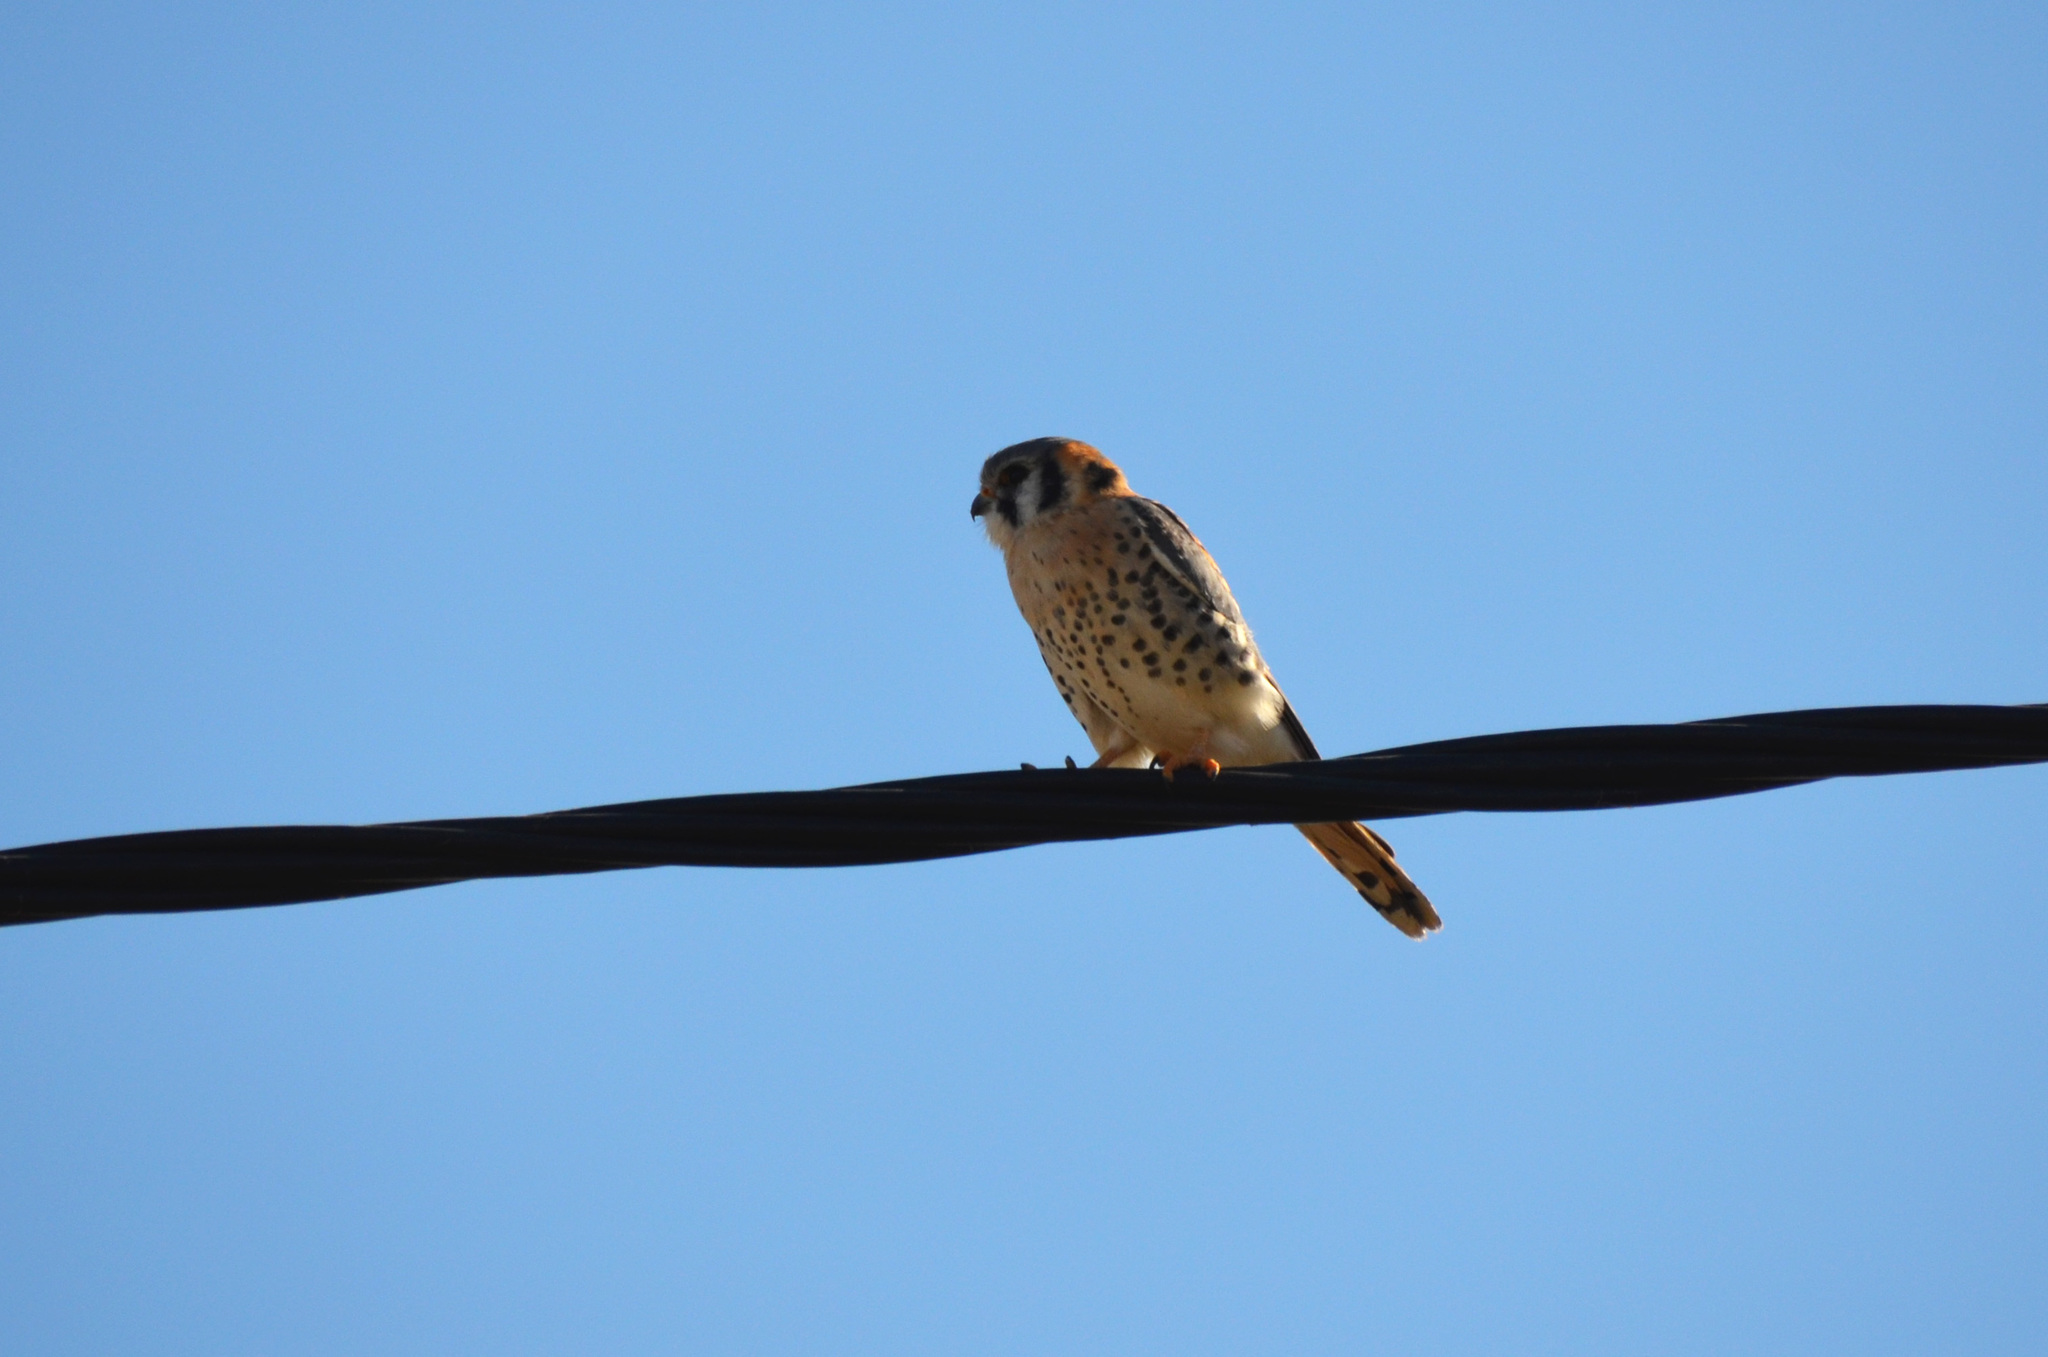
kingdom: Animalia
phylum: Chordata
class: Aves
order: Falconiformes
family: Falconidae
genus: Falco
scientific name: Falco sparverius
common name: American kestrel
